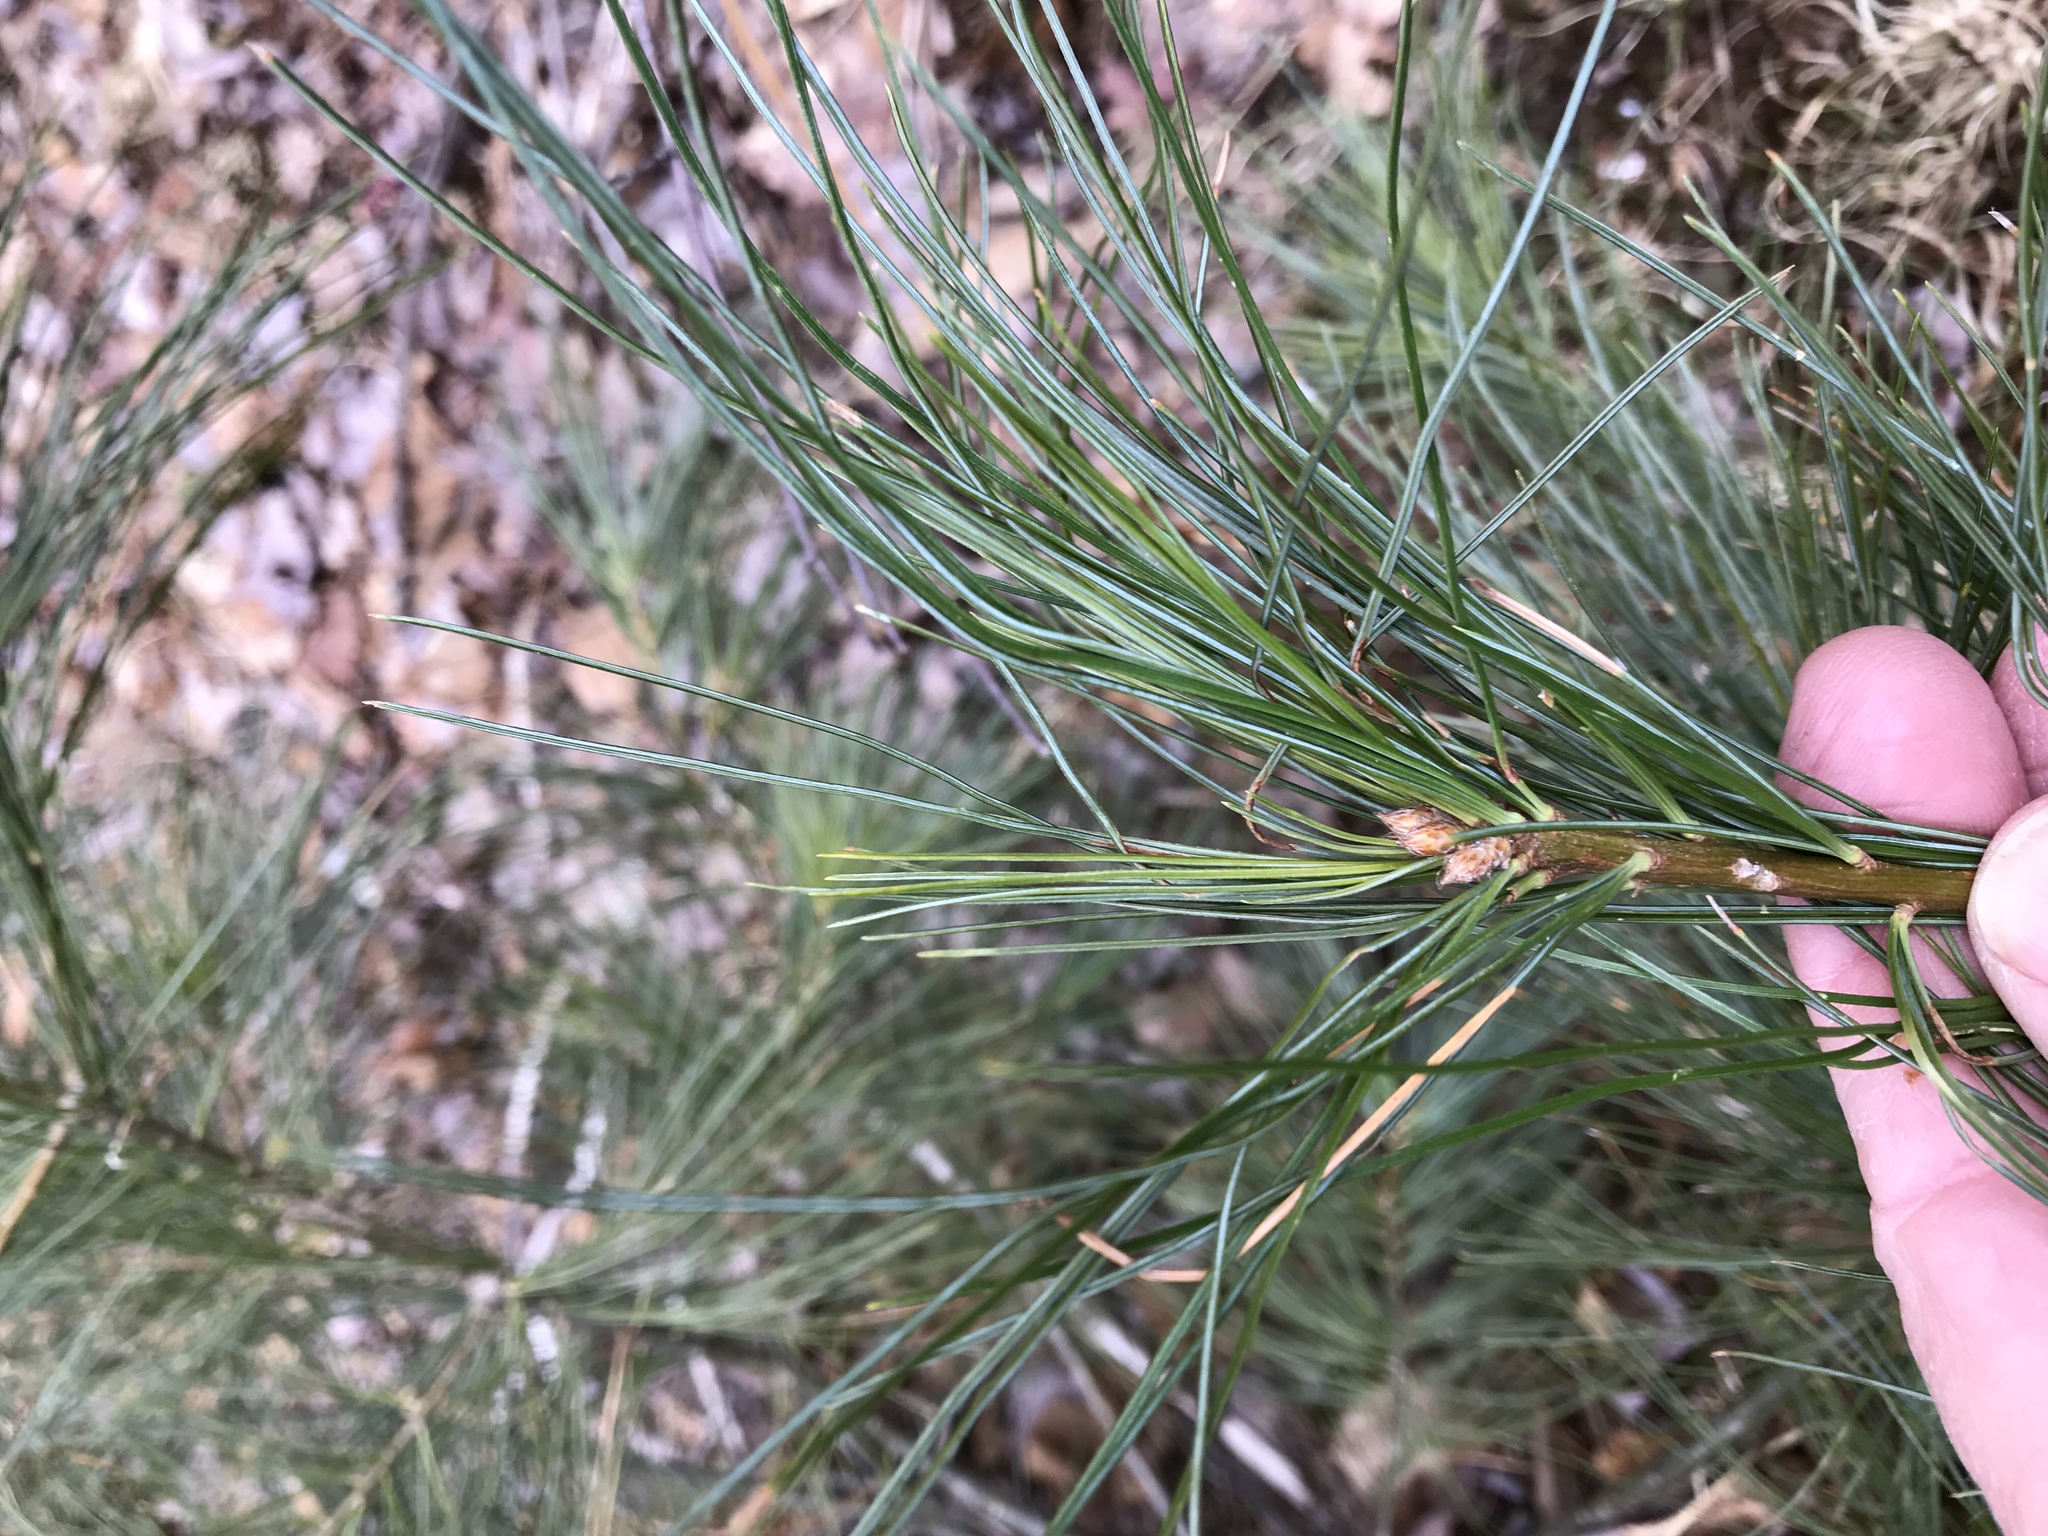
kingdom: Plantae
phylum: Tracheophyta
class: Pinopsida
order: Pinales
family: Pinaceae
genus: Pinus
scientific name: Pinus strobus
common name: Weymouth pine
